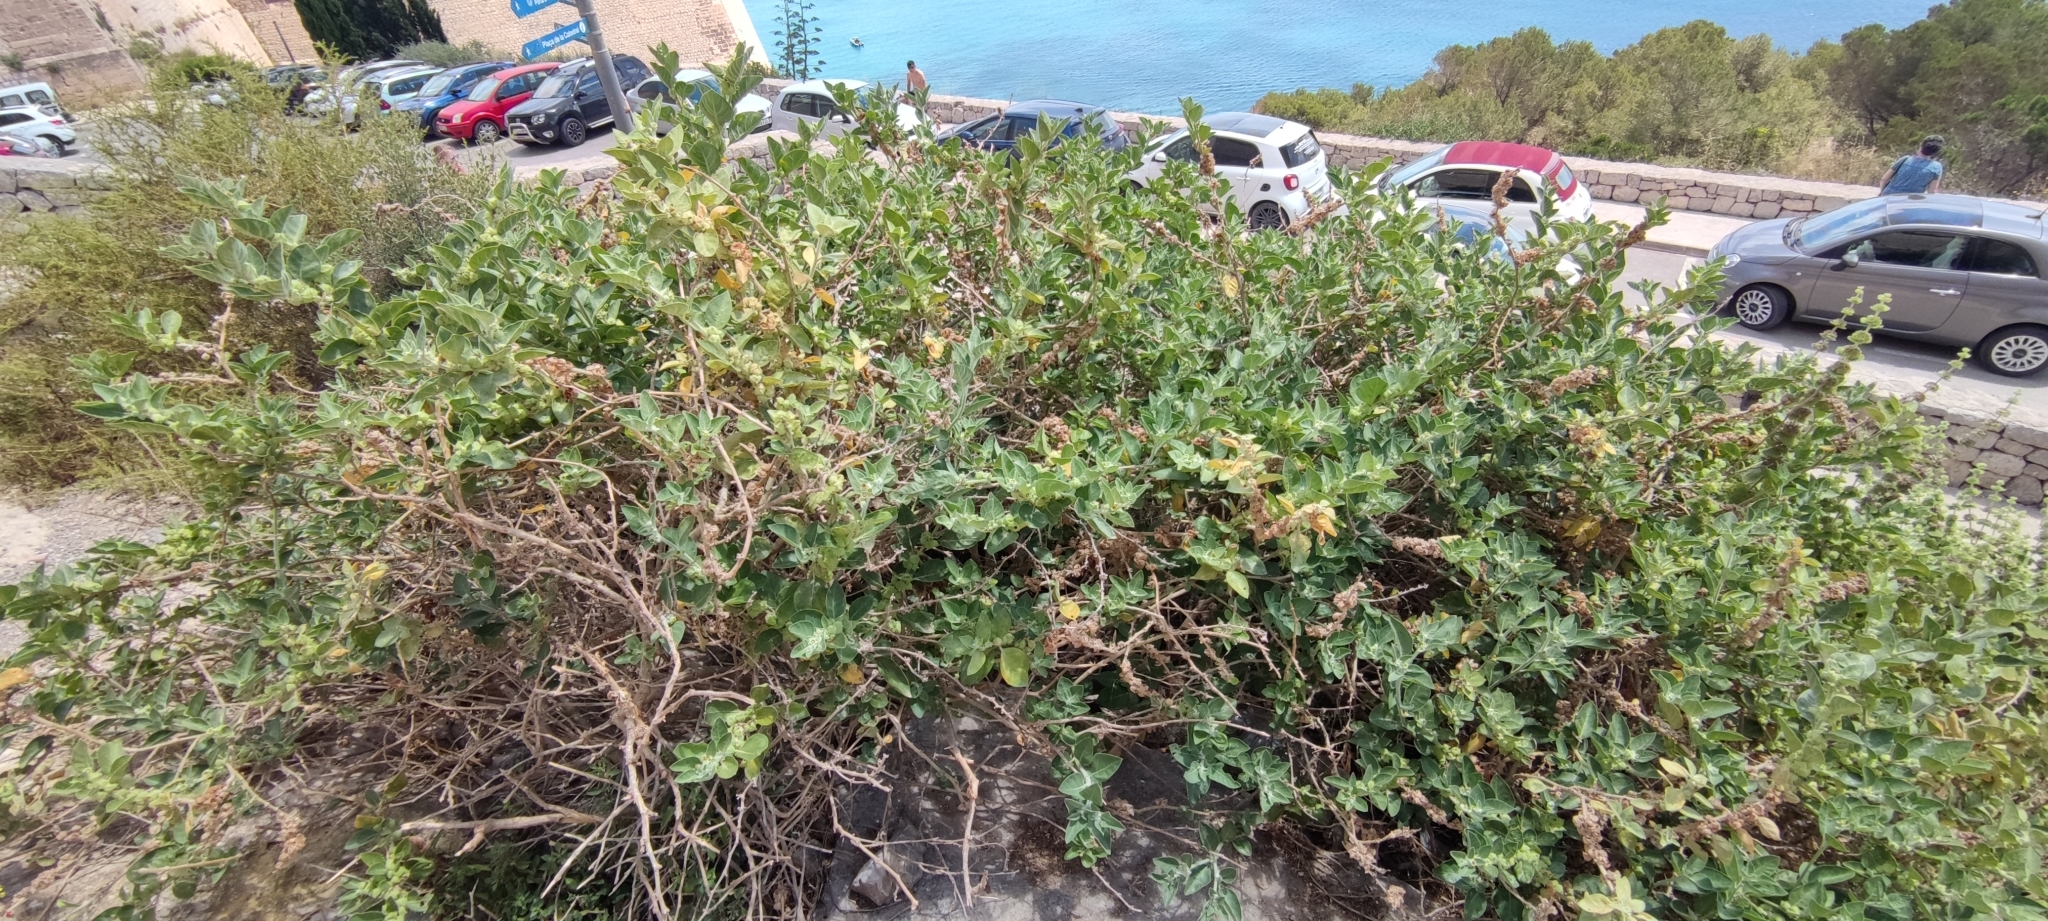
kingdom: Plantae
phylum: Tracheophyta
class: Magnoliopsida
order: Solanales
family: Solanaceae
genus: Withania
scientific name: Withania somnifera
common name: Winter-cherry
